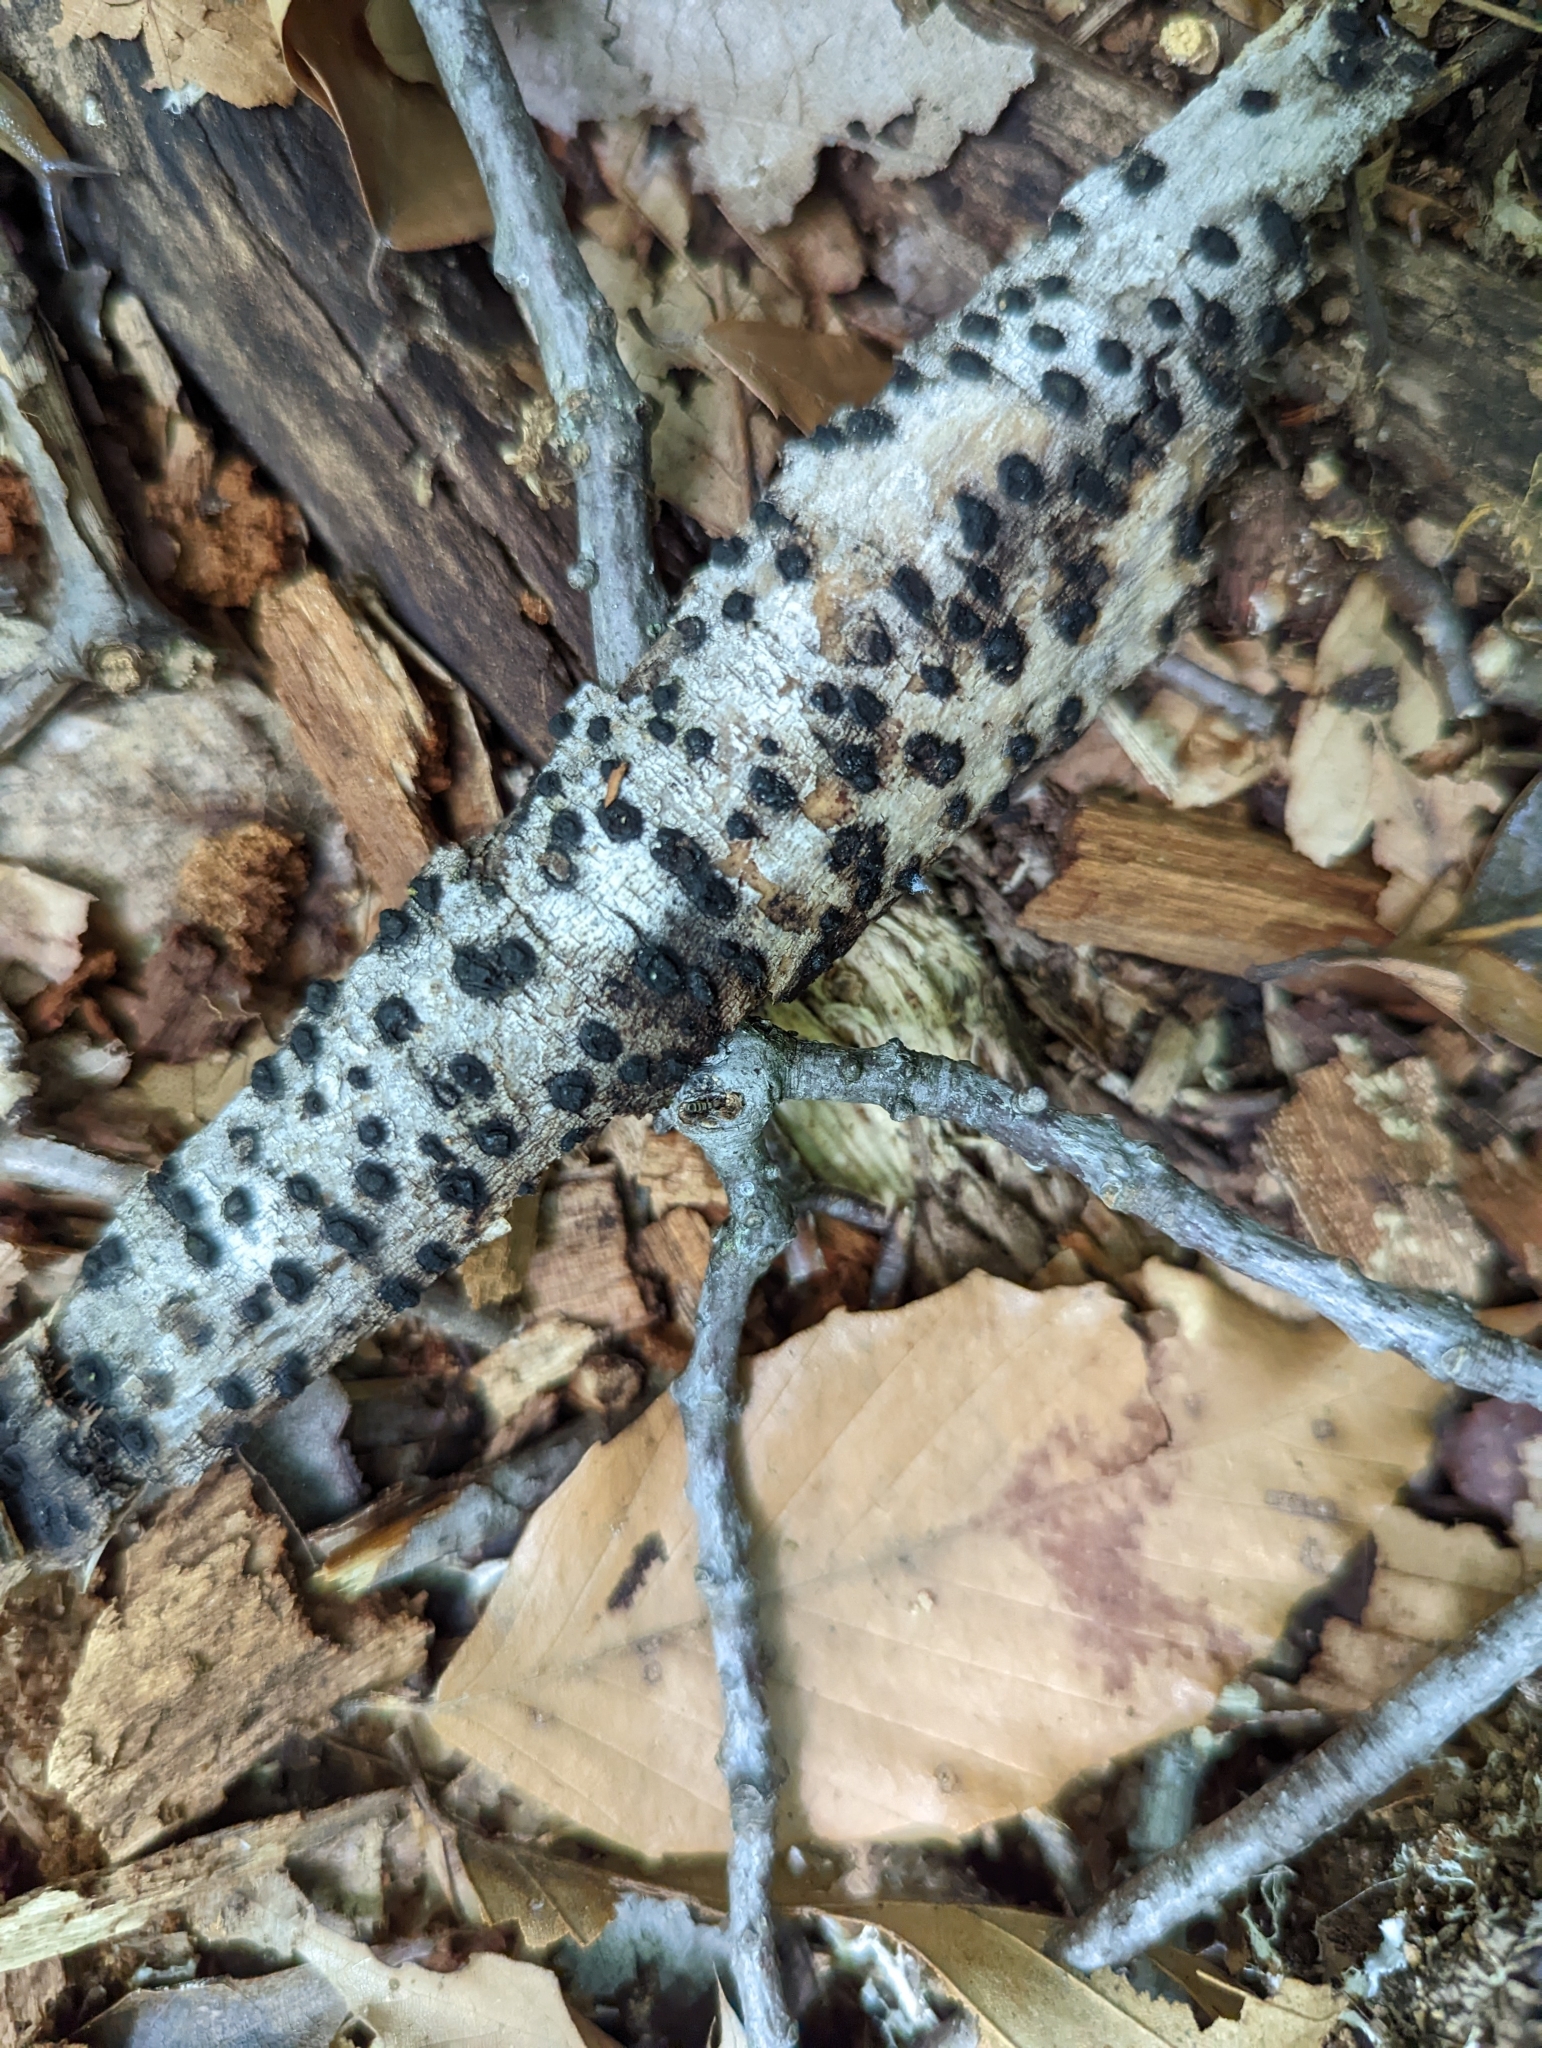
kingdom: Fungi
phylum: Ascomycota
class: Sordariomycetes
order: Xylariales
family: Hypoxylaceae
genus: Hypoxylon
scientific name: Hypoxylon fragiforme
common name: Beech woodwart
